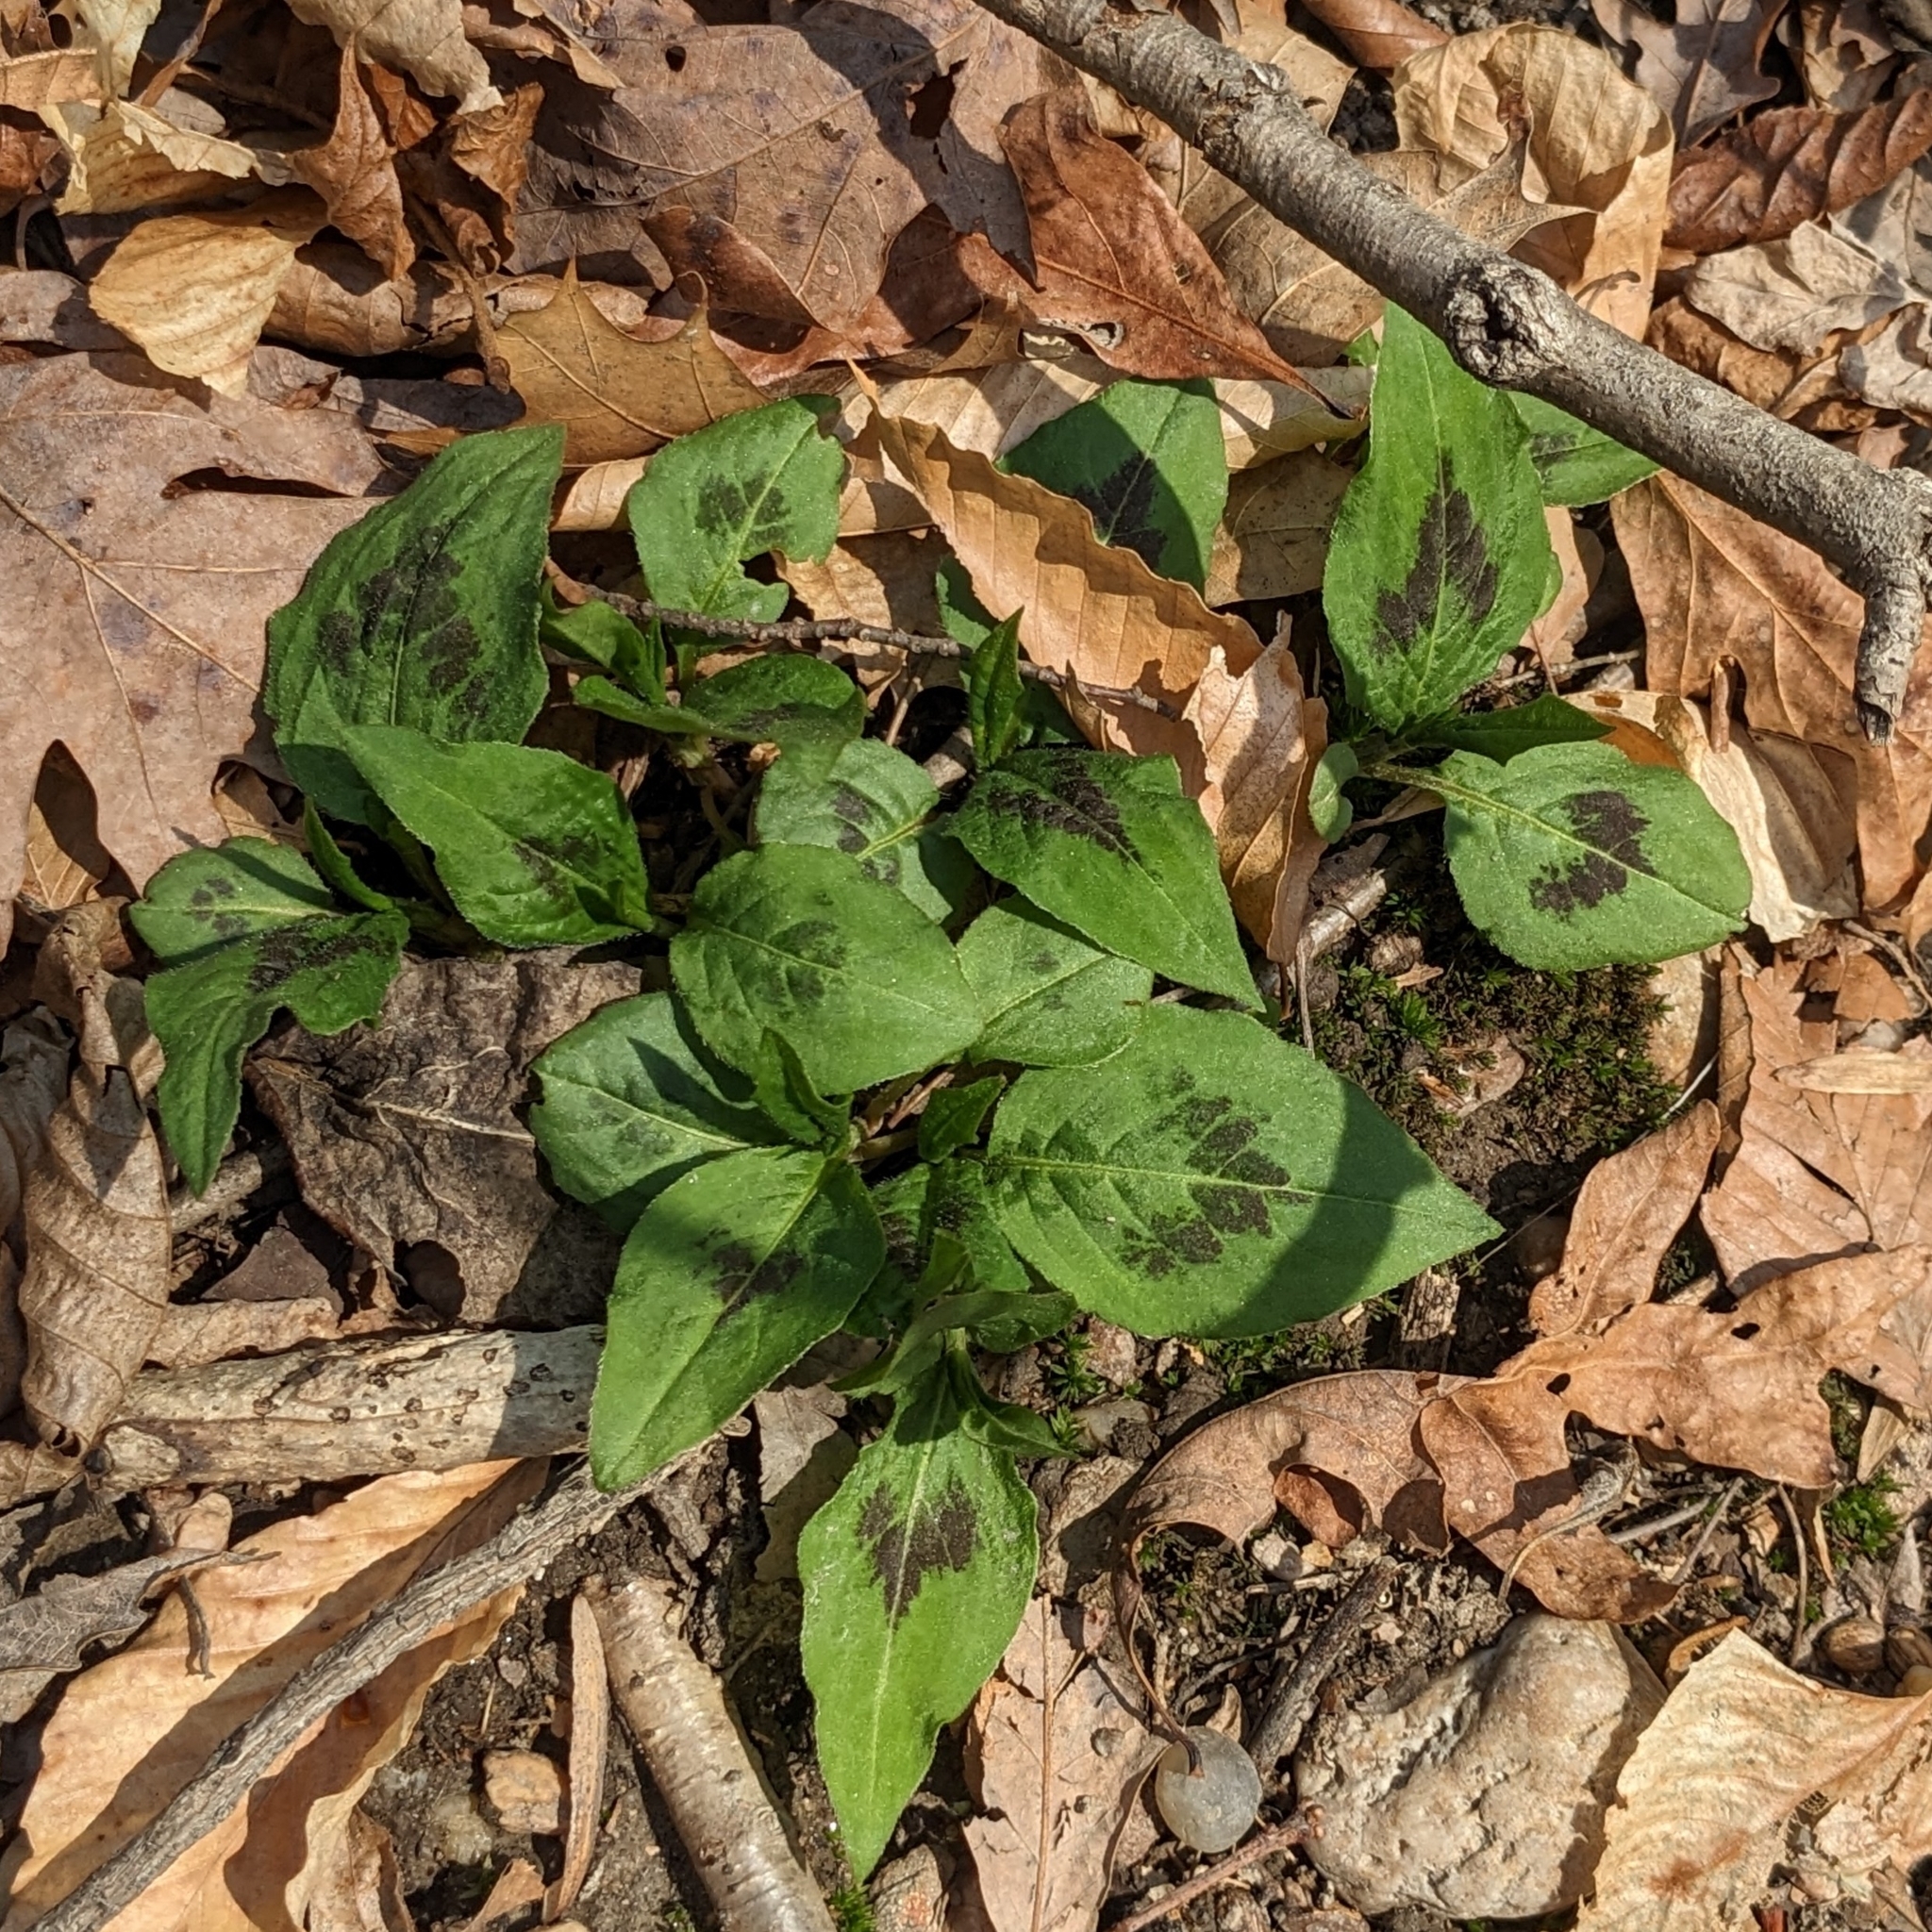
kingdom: Plantae
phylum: Tracheophyta
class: Magnoliopsida
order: Caryophyllales
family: Polygonaceae
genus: Persicaria
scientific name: Persicaria virginiana
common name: Jumpseed
